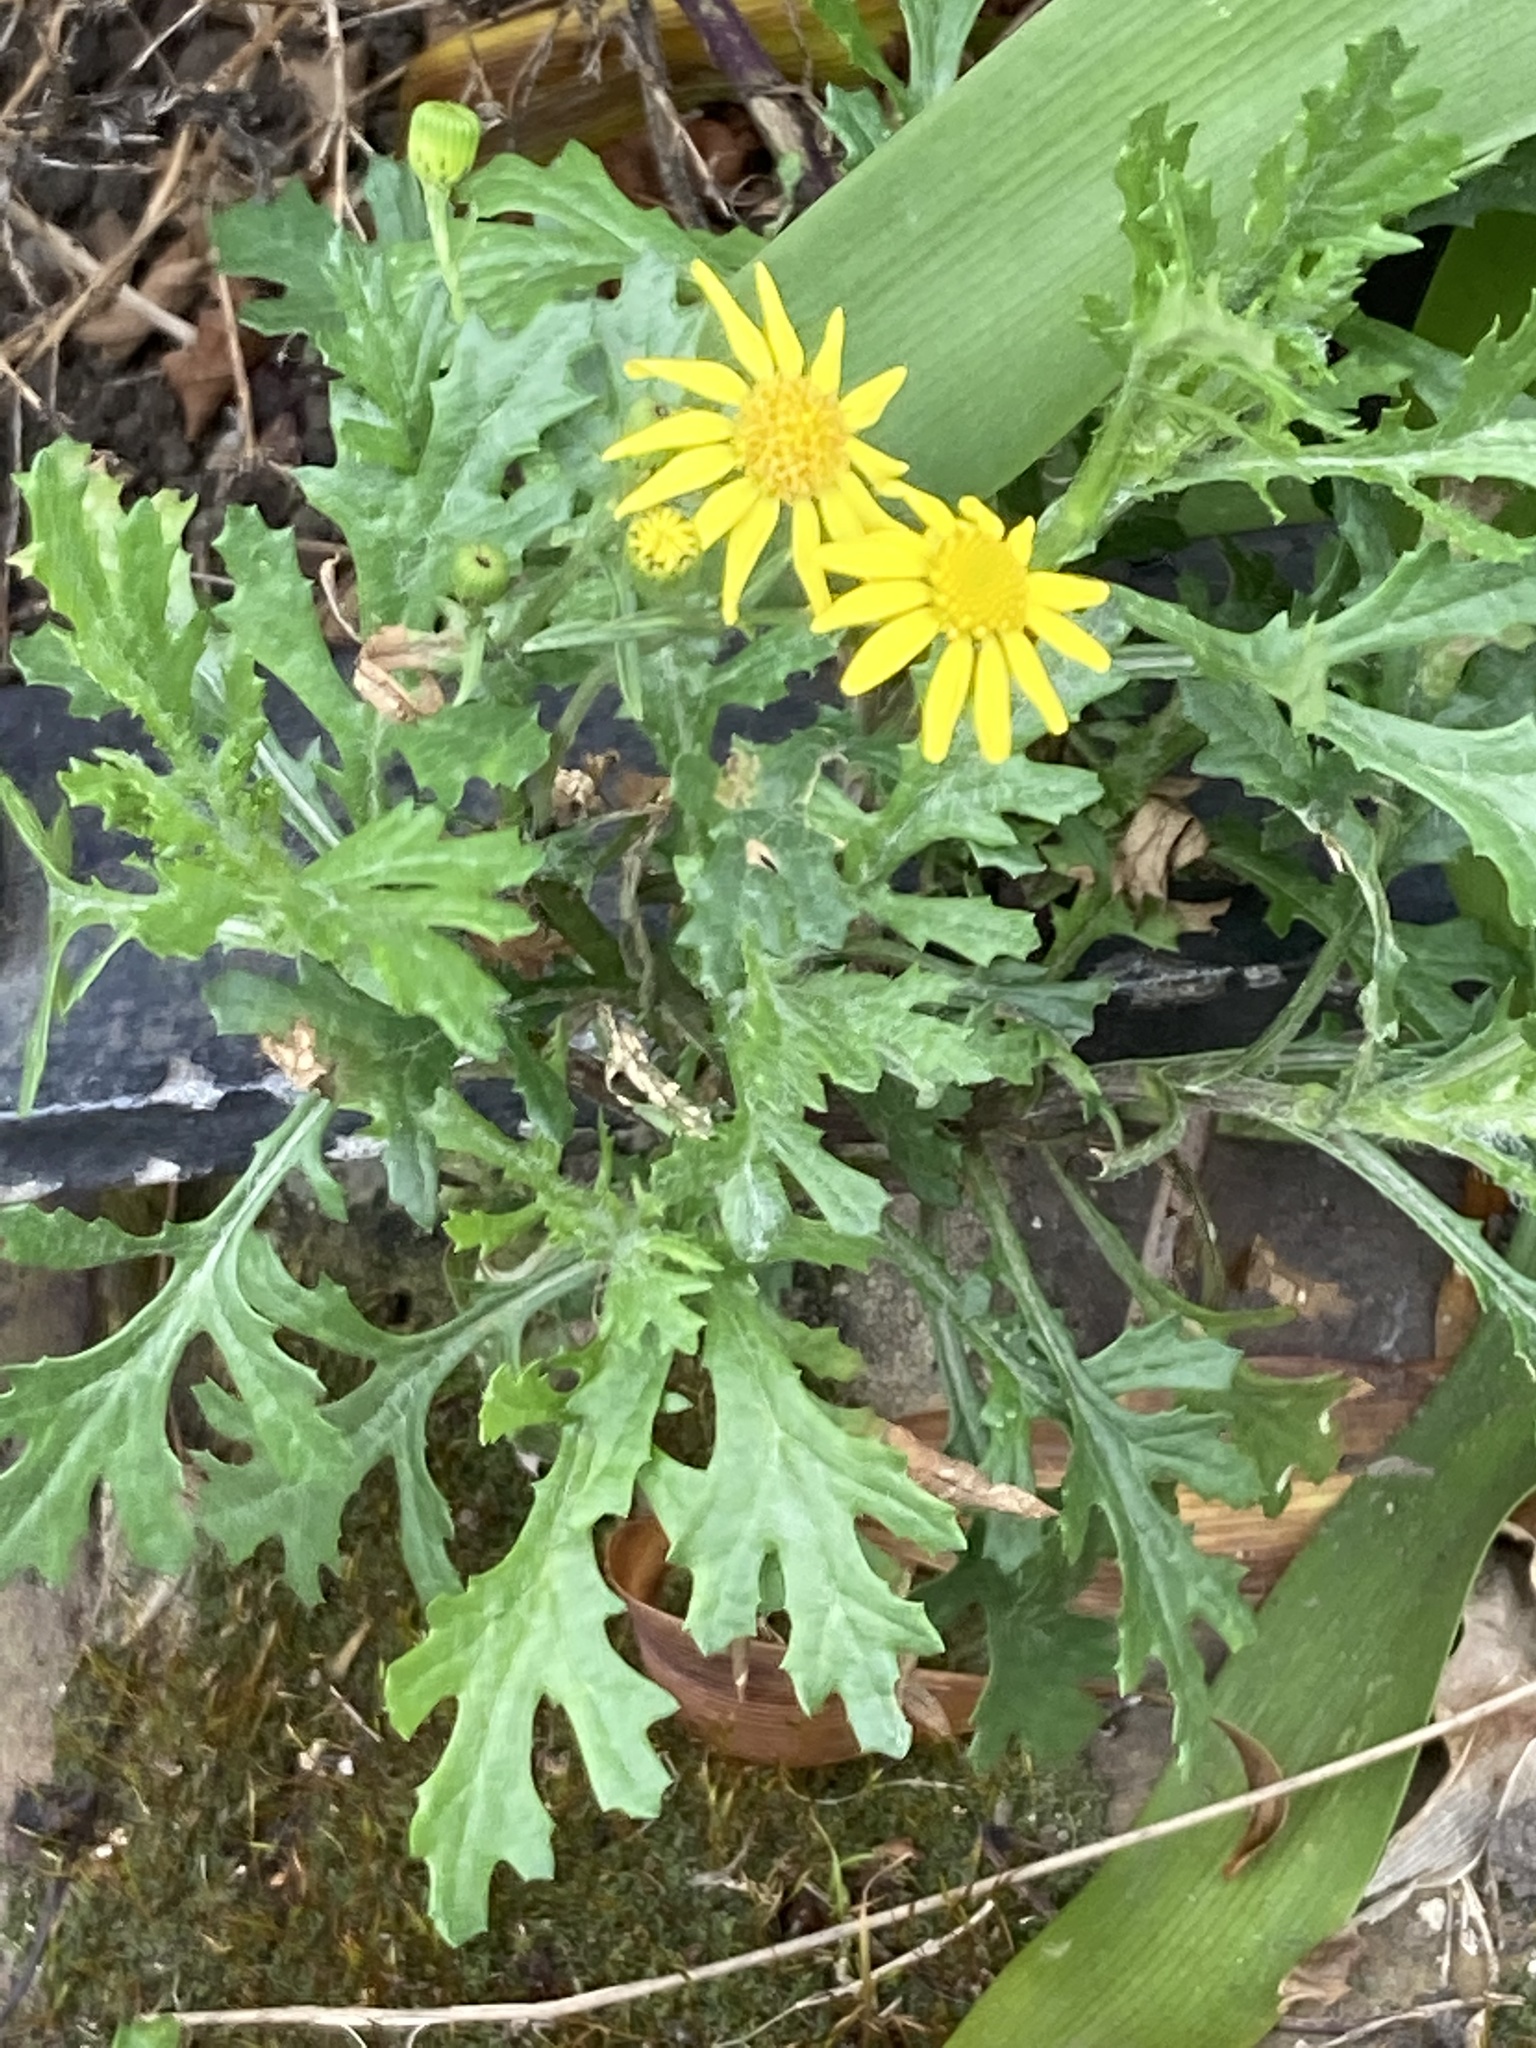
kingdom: Plantae
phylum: Tracheophyta
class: Magnoliopsida
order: Asterales
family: Asteraceae
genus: Senecio
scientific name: Senecio squalidus
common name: Oxford ragwort
